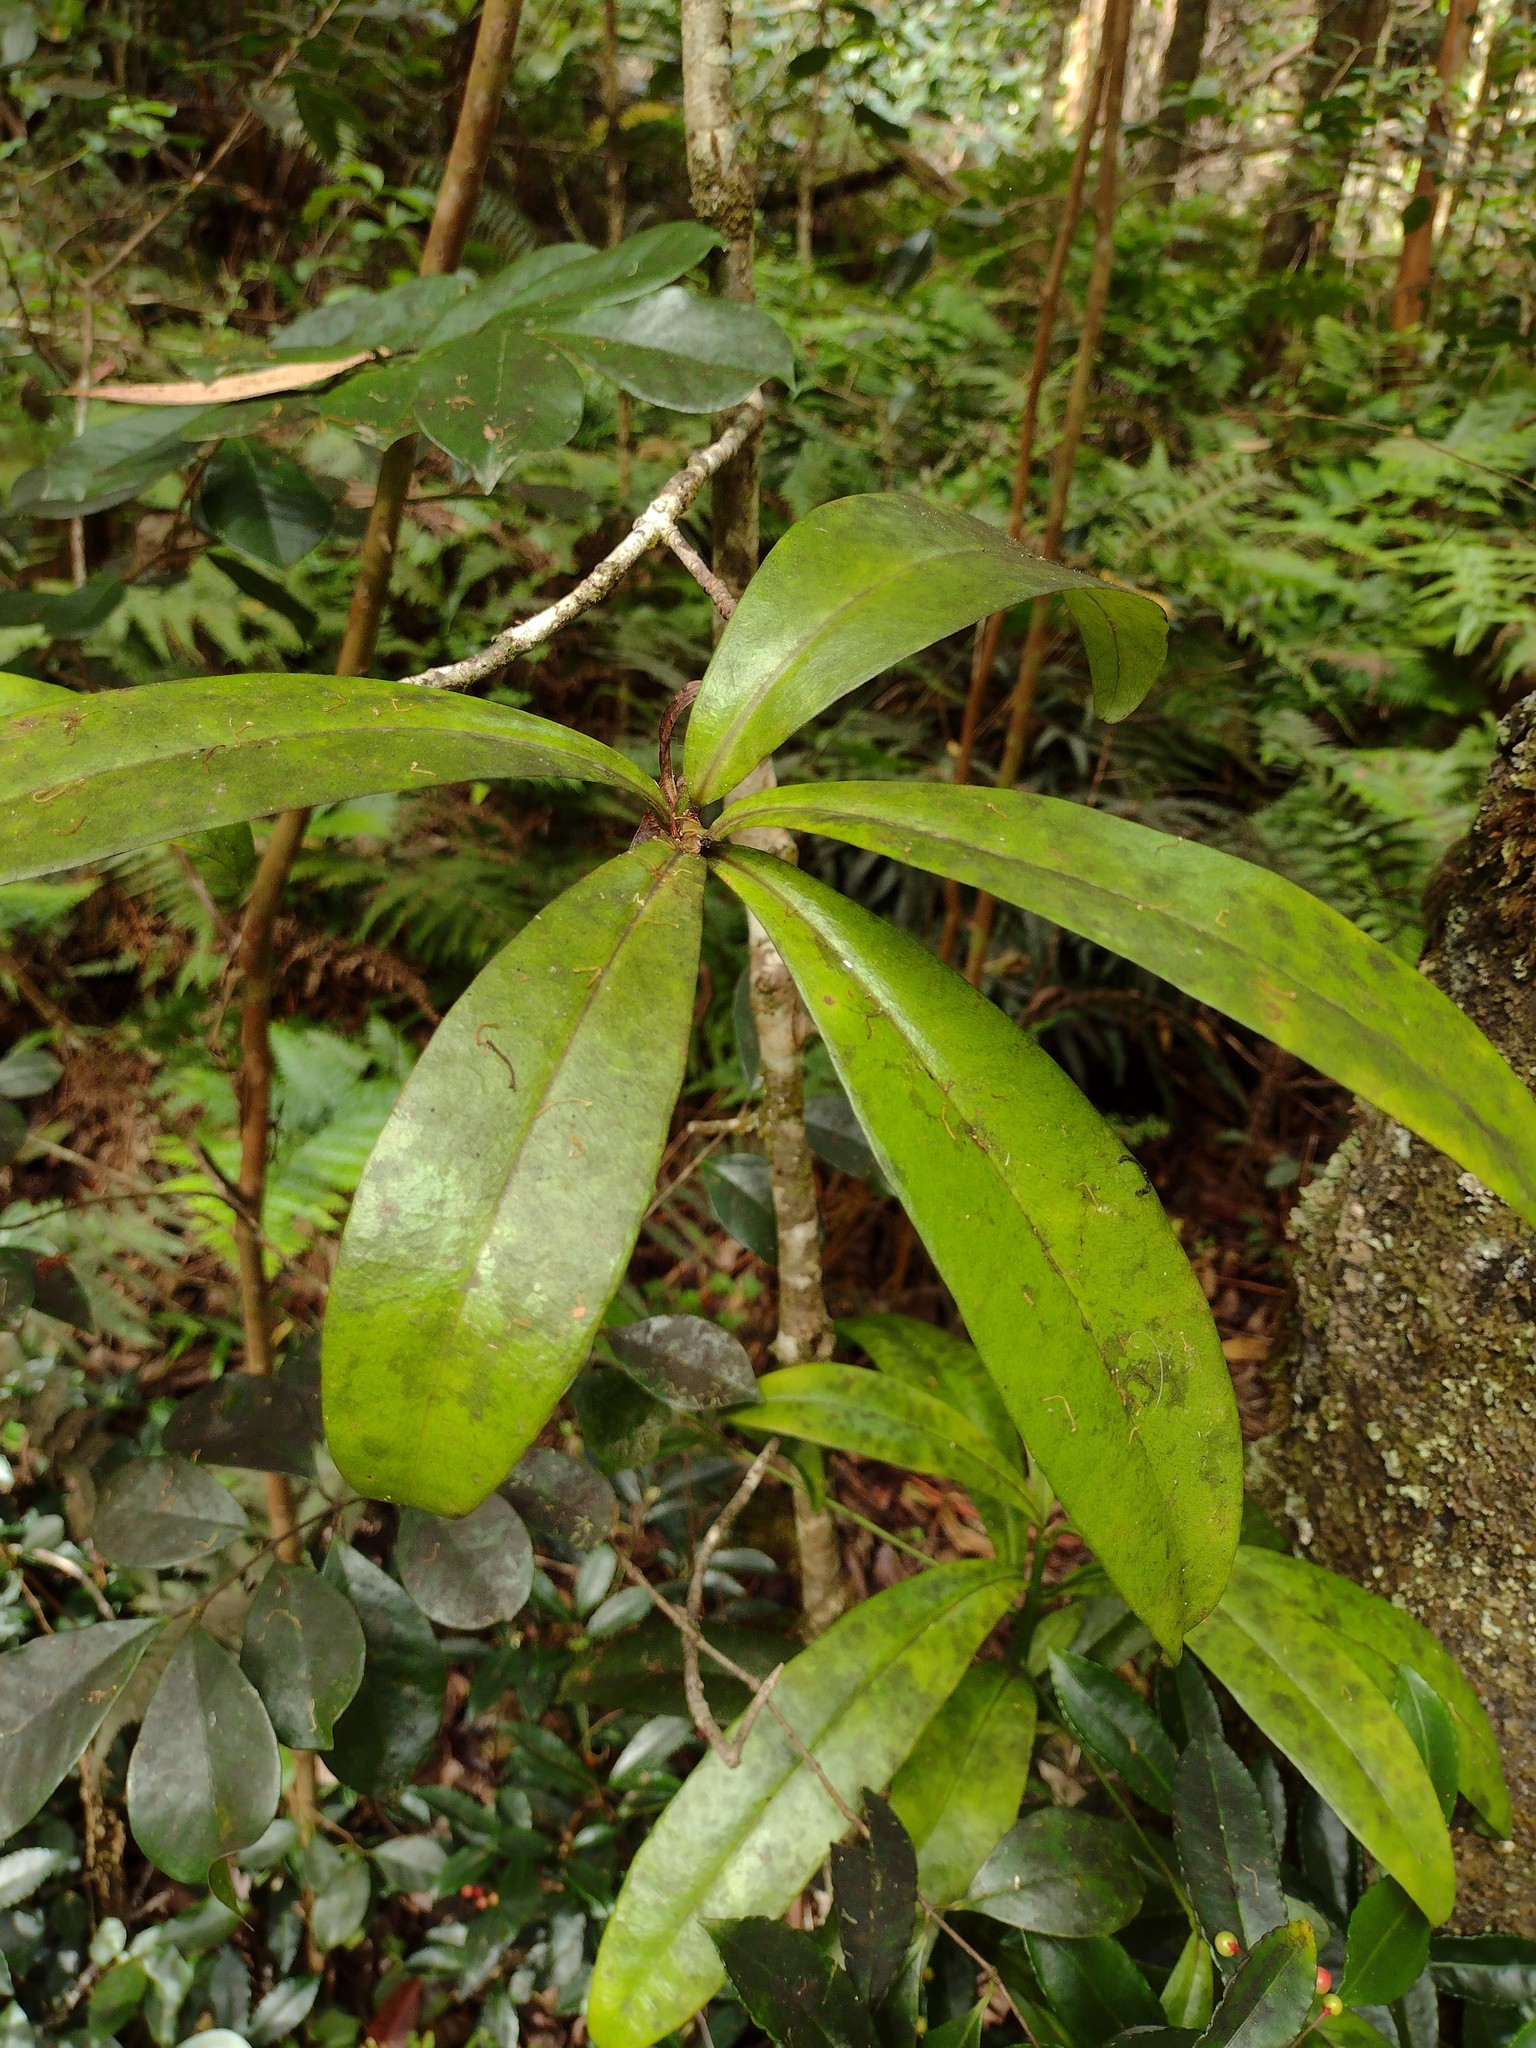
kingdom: Plantae
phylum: Tracheophyta
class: Magnoliopsida
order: Ericales
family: Primulaceae
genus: Myrsine
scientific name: Myrsine lessertiana
